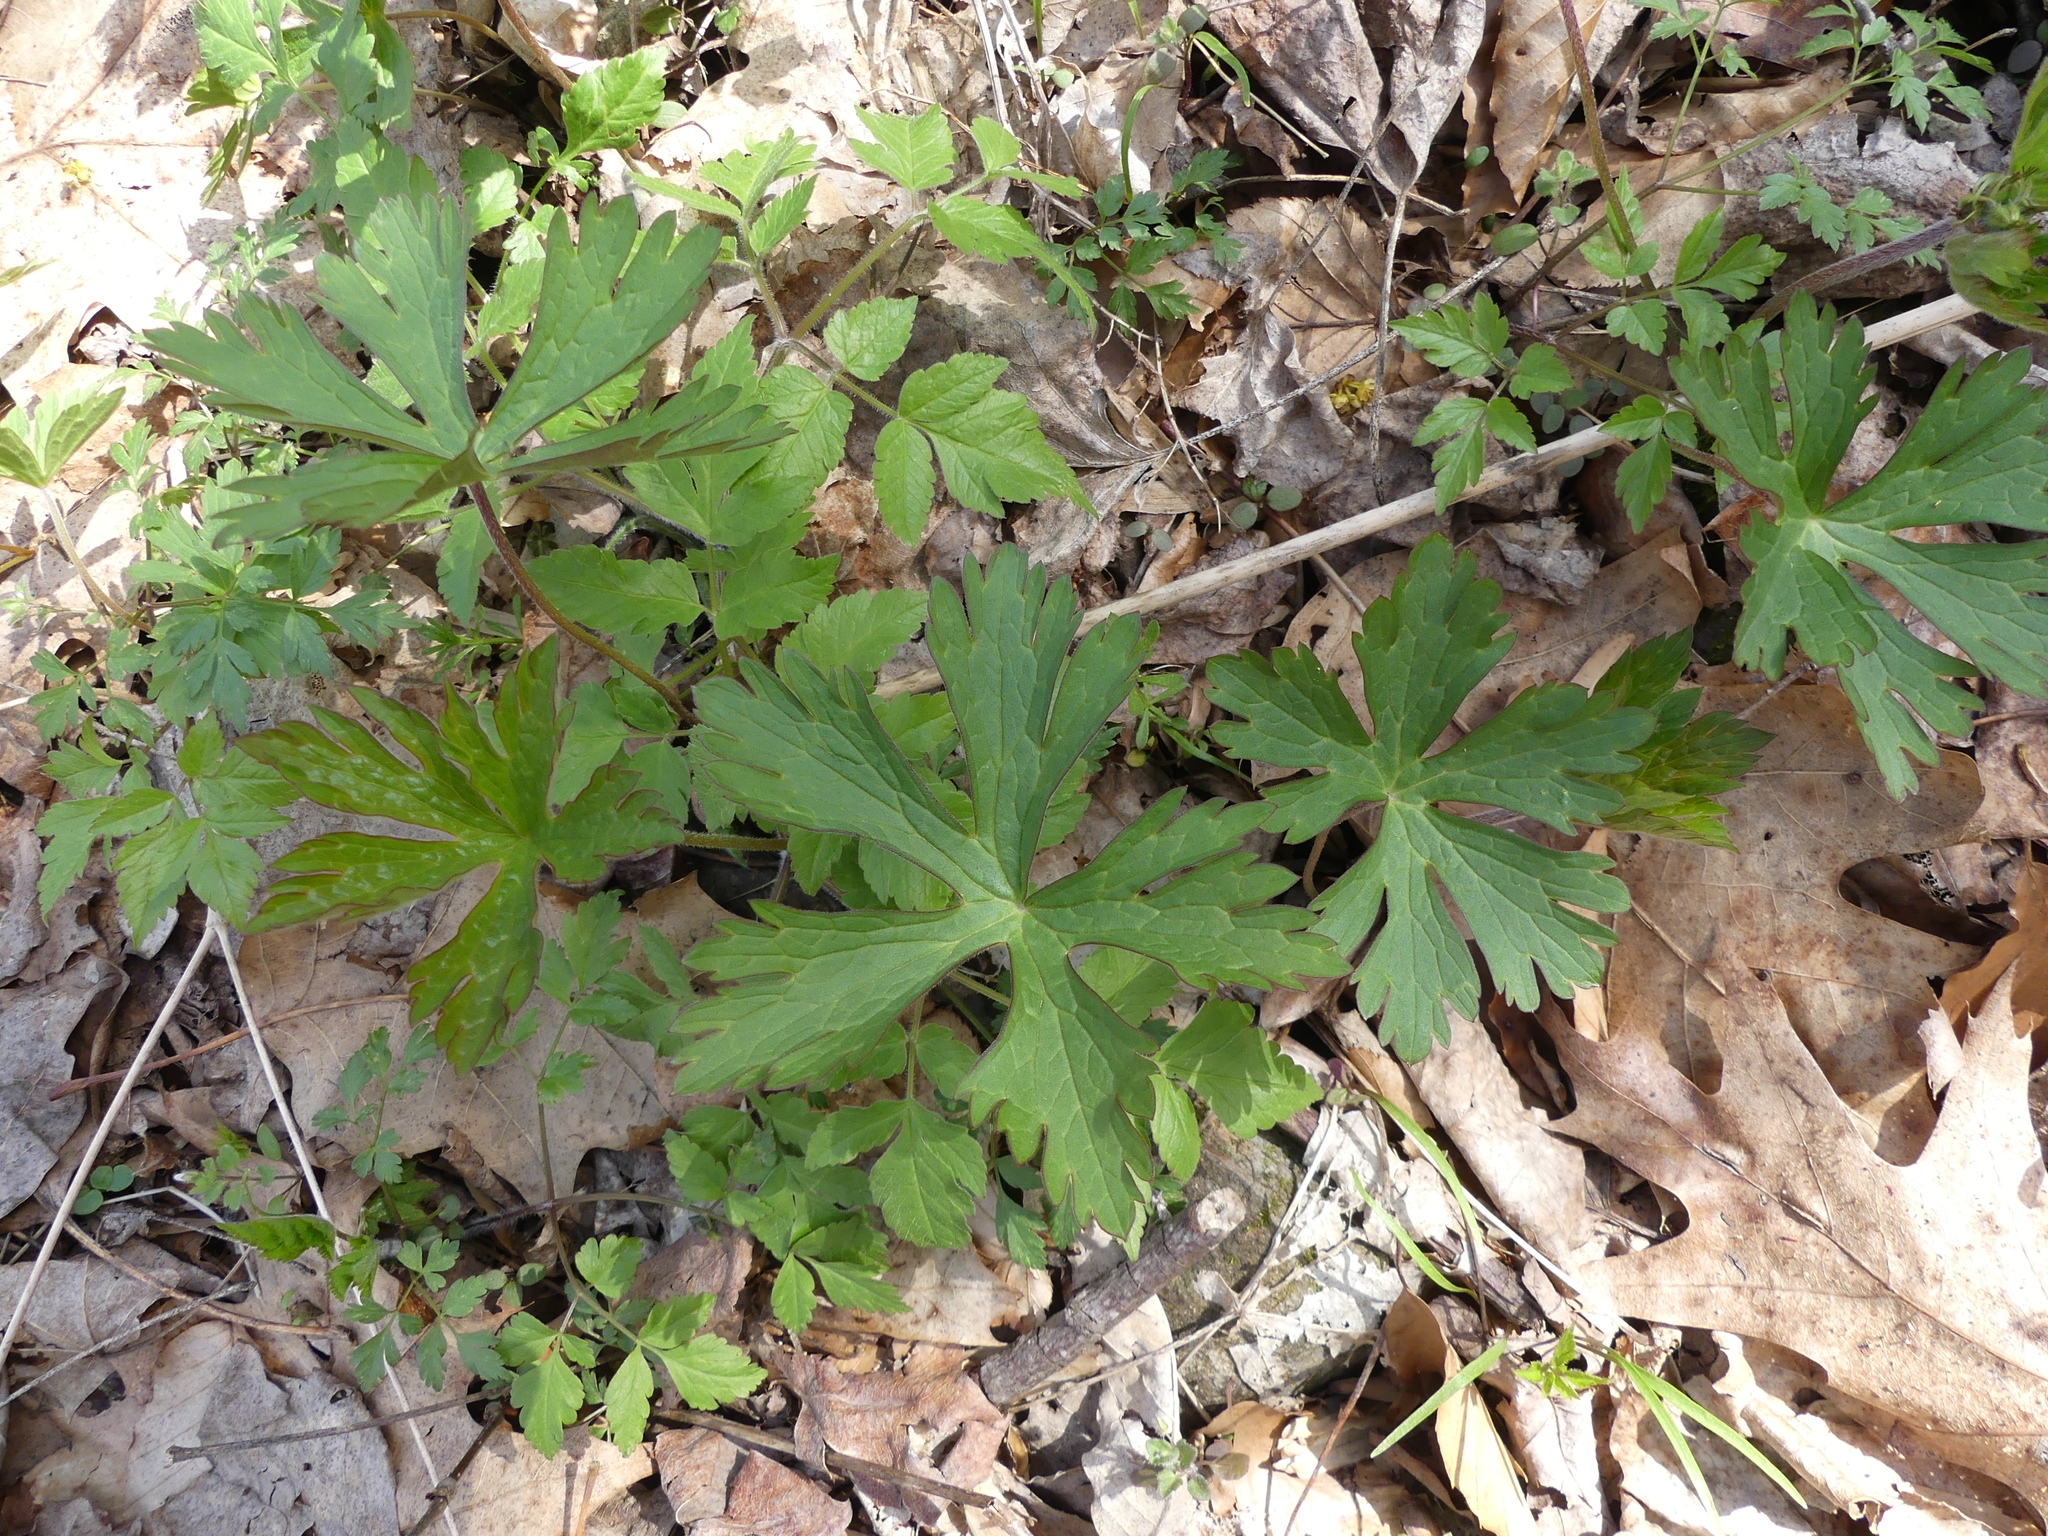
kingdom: Plantae
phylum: Tracheophyta
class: Magnoliopsida
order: Geraniales
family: Geraniaceae
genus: Geranium
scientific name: Geranium maculatum
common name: Spotted geranium
